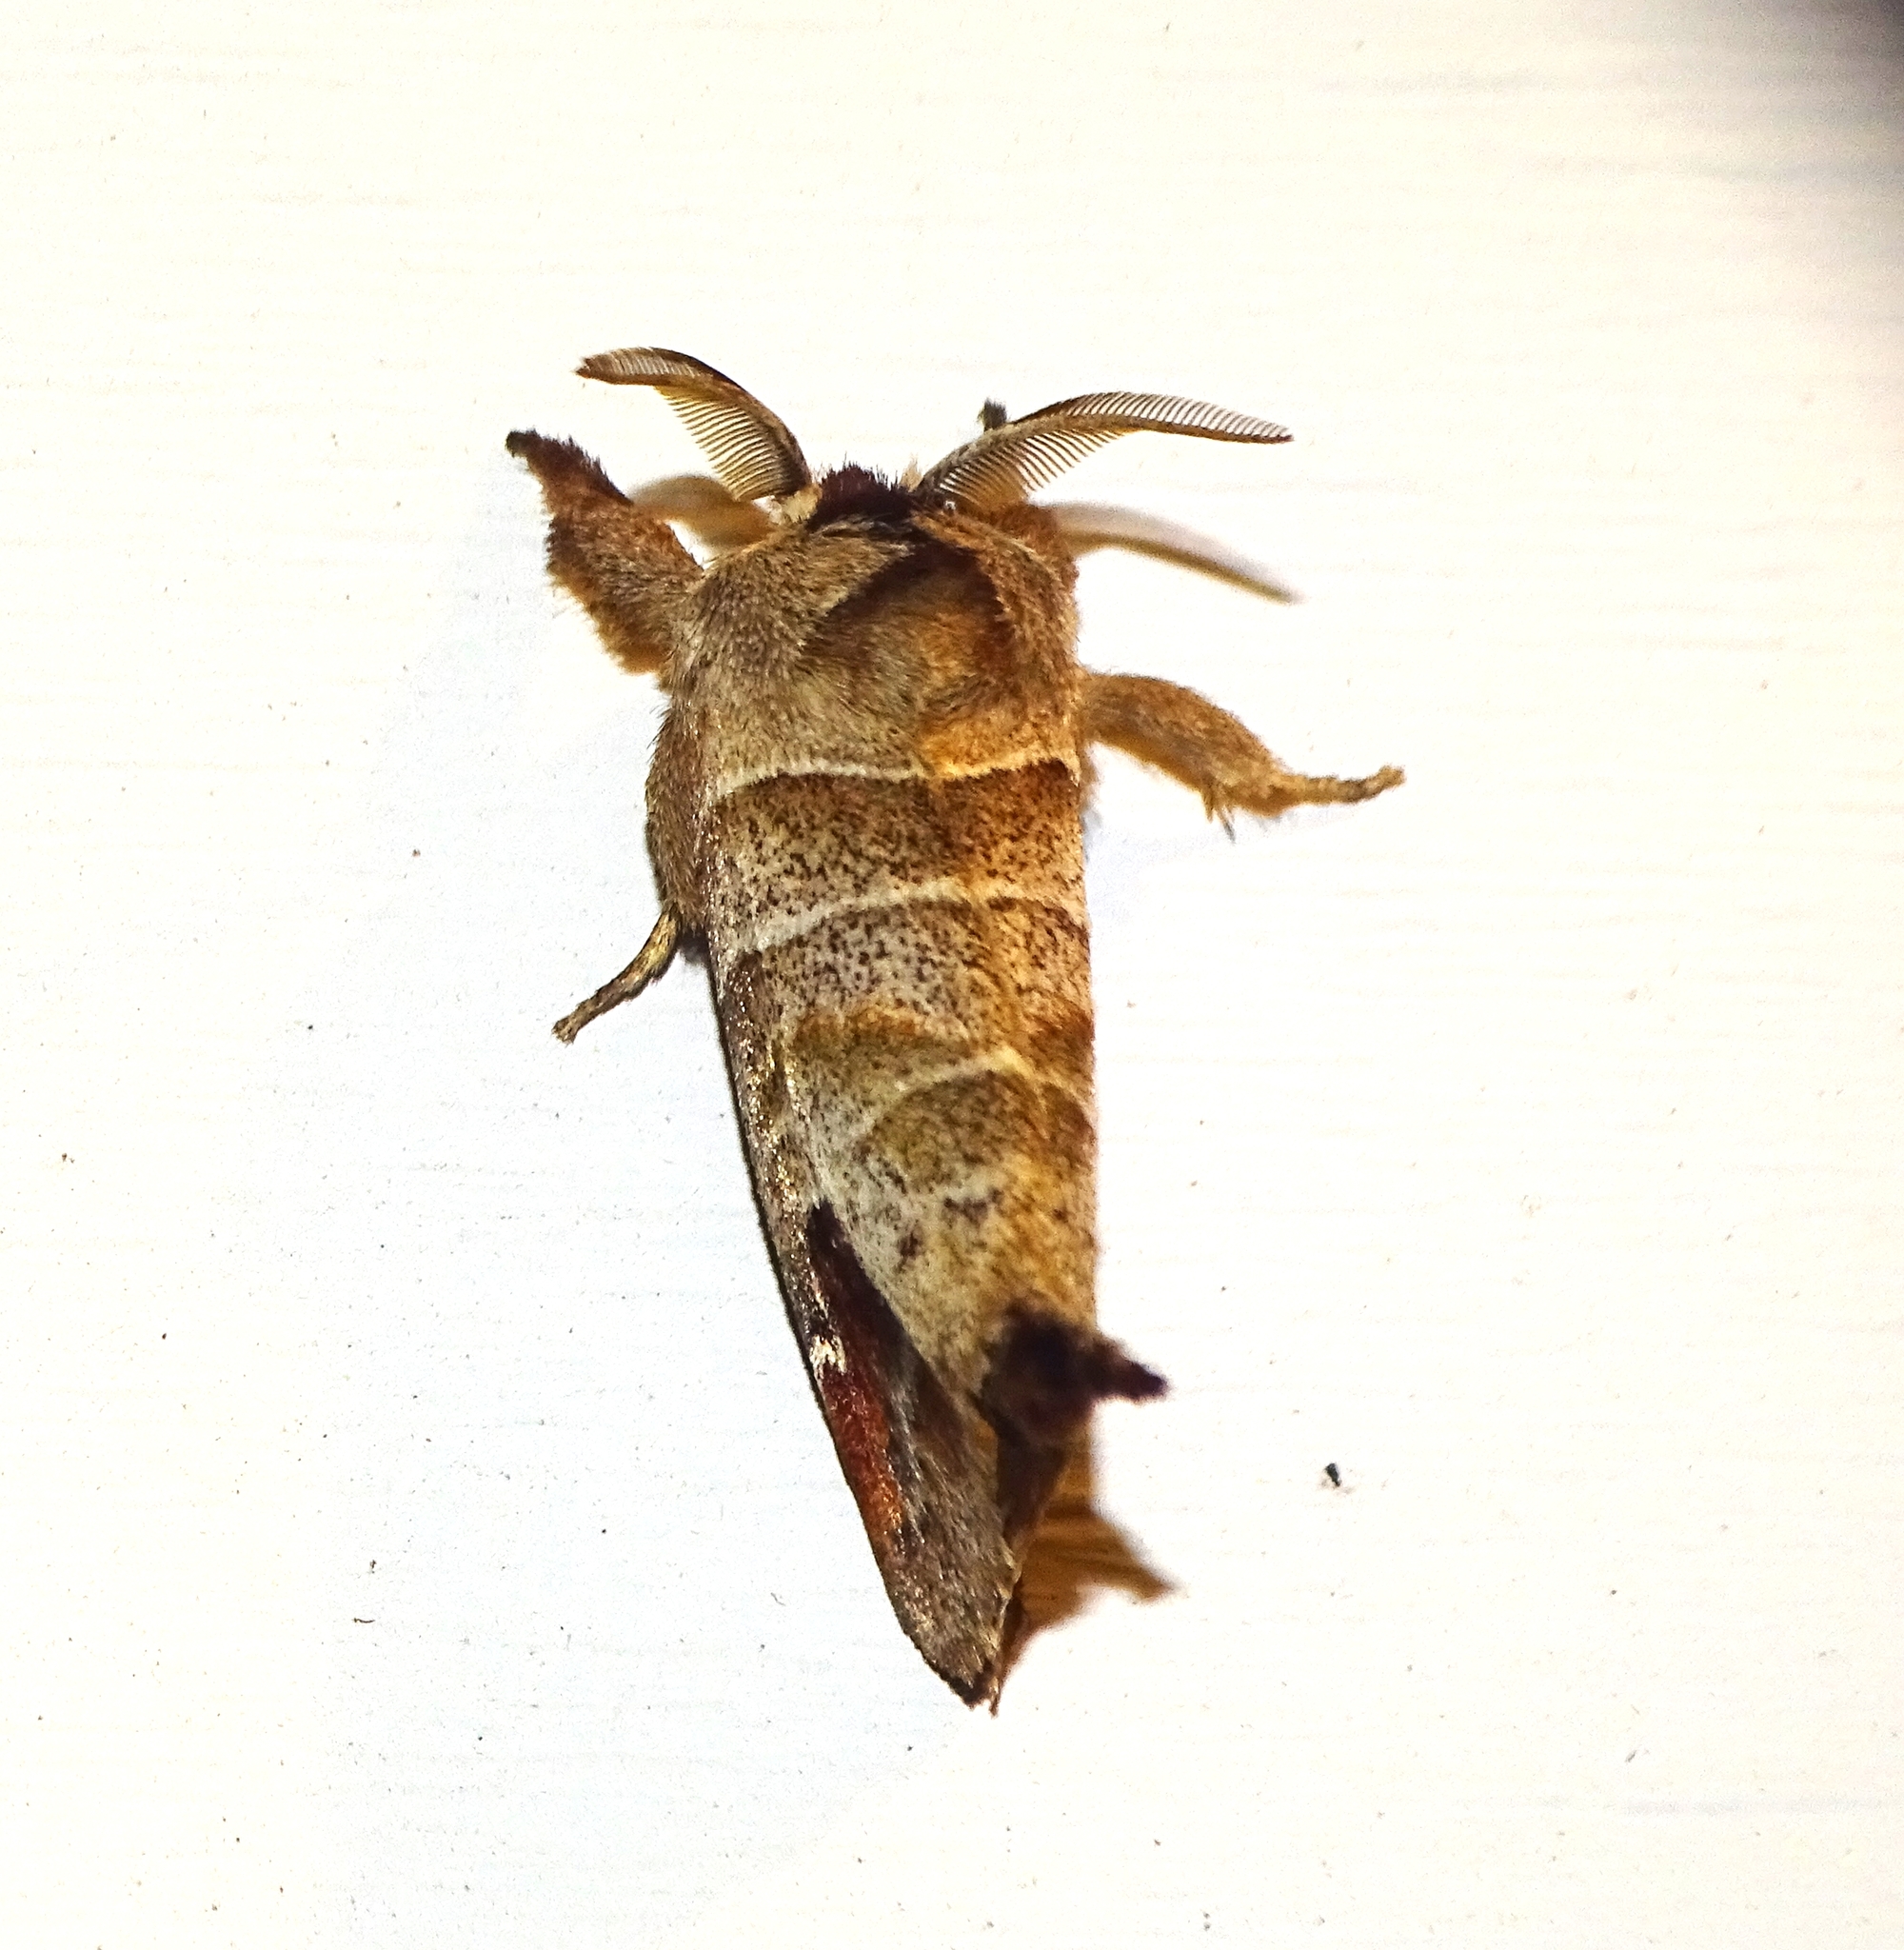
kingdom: Animalia
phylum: Arthropoda
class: Insecta
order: Lepidoptera
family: Notodontidae
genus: Clostera
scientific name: Clostera albosigma
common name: Sigmoid prominent
